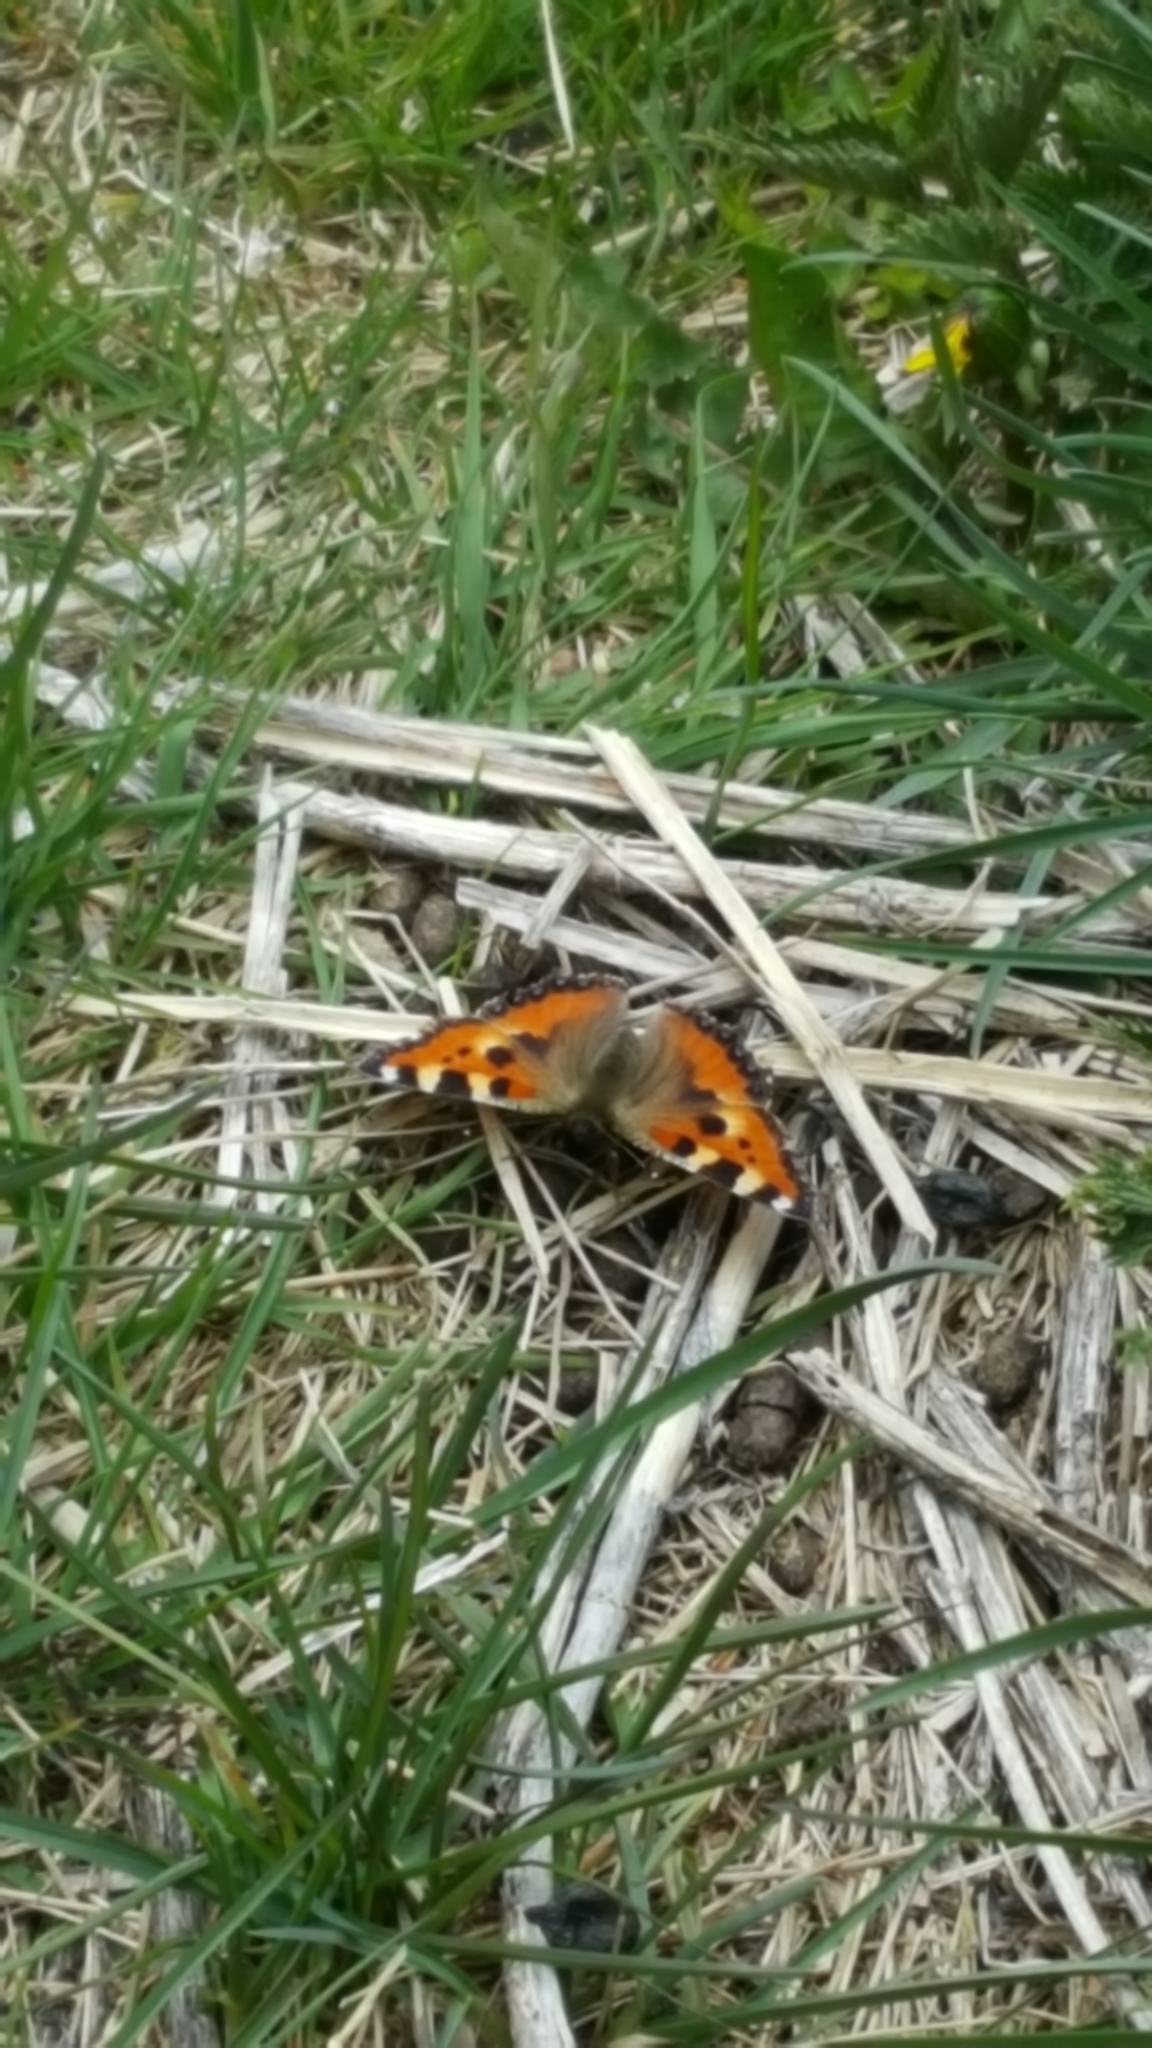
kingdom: Animalia
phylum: Arthropoda
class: Insecta
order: Lepidoptera
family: Nymphalidae
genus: Aglais
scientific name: Aglais urticae
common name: Small tortoiseshell
